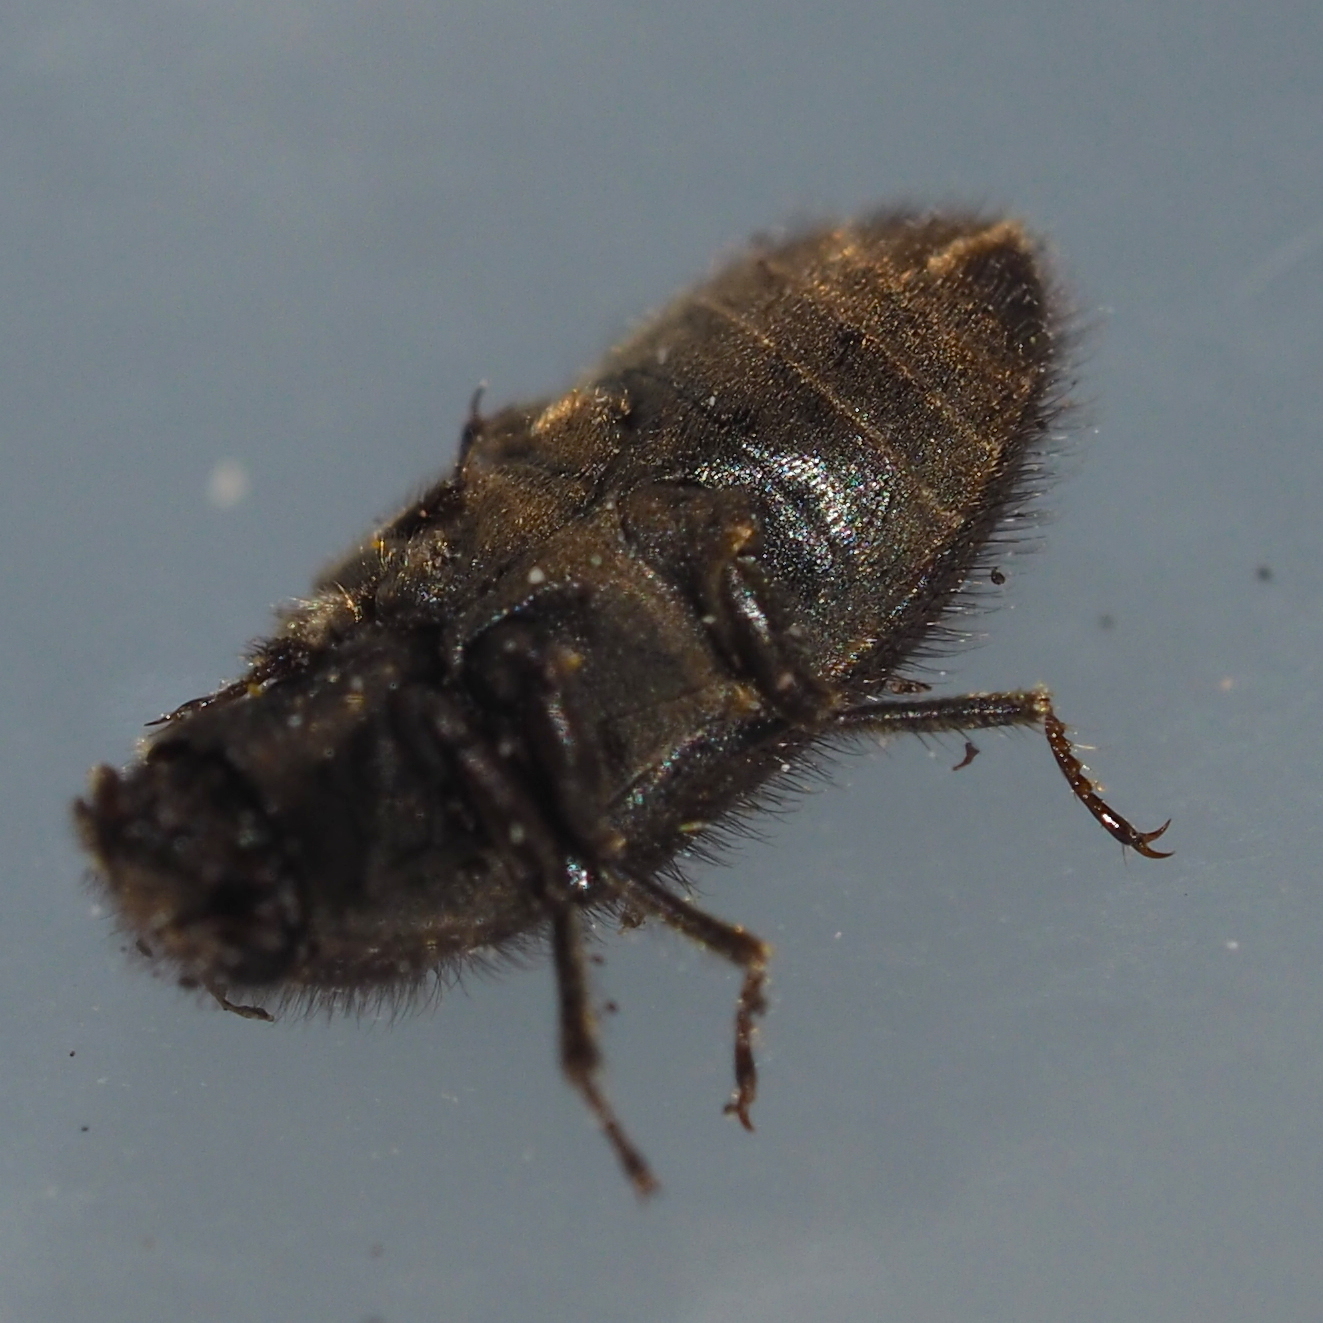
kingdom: Animalia
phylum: Arthropoda
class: Insecta
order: Coleoptera
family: Dryopidae
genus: Dryops
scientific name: Dryops
